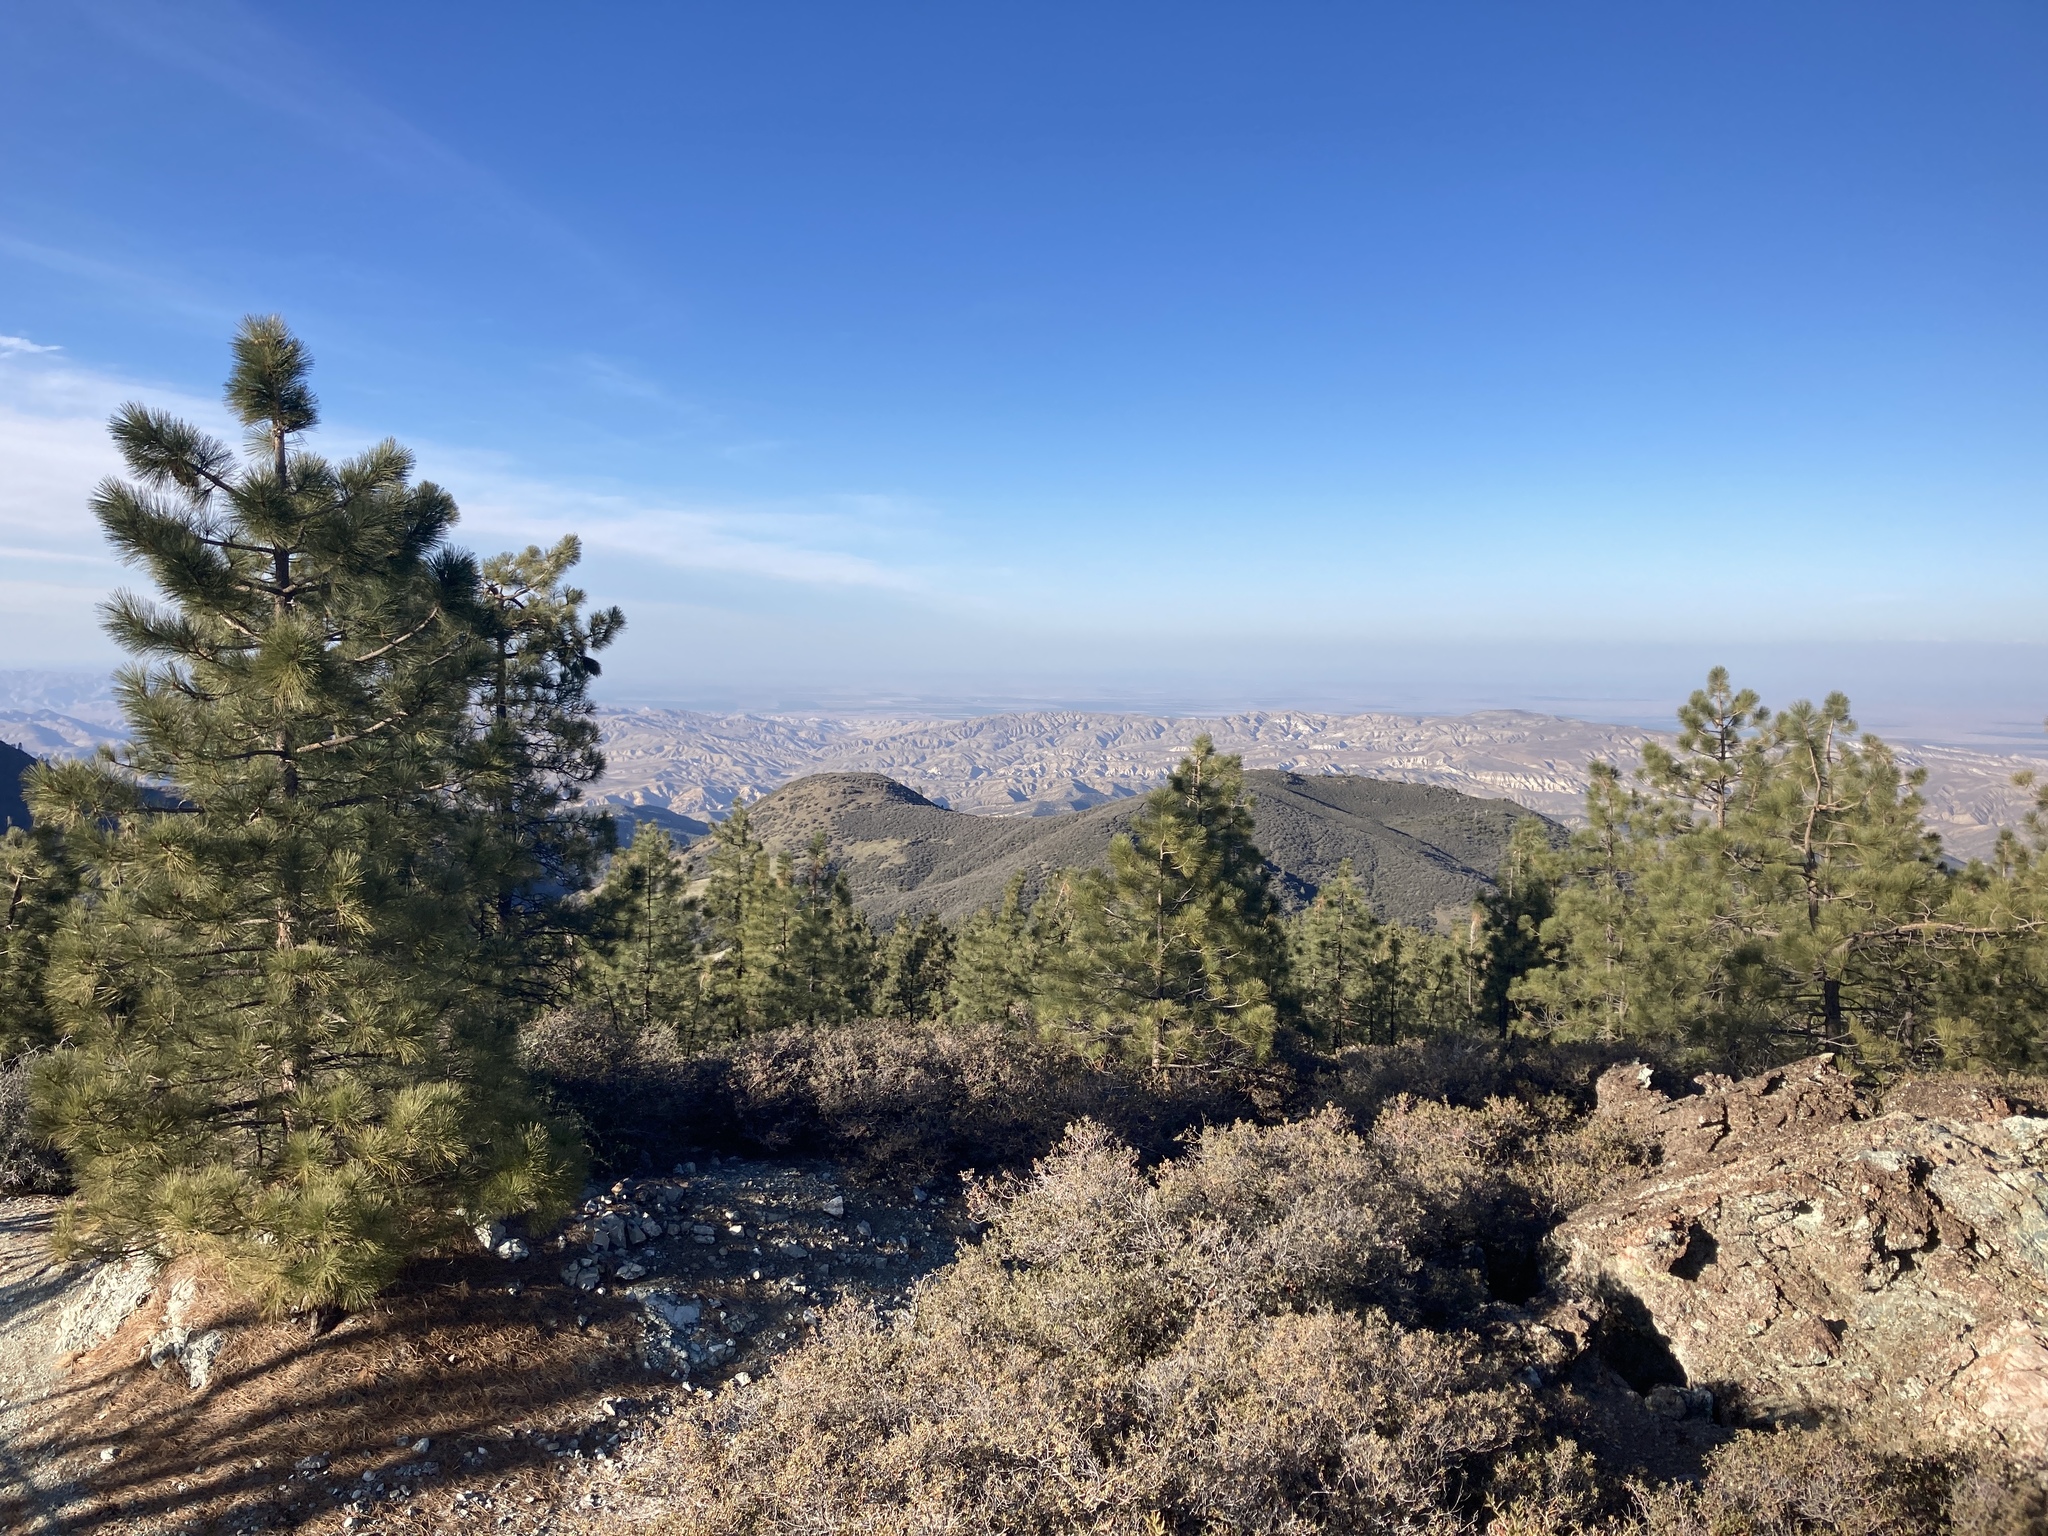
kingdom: Plantae
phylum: Tracheophyta
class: Pinopsida
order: Pinales
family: Pinaceae
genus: Pinus
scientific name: Pinus coulteri
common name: Coulter pine
